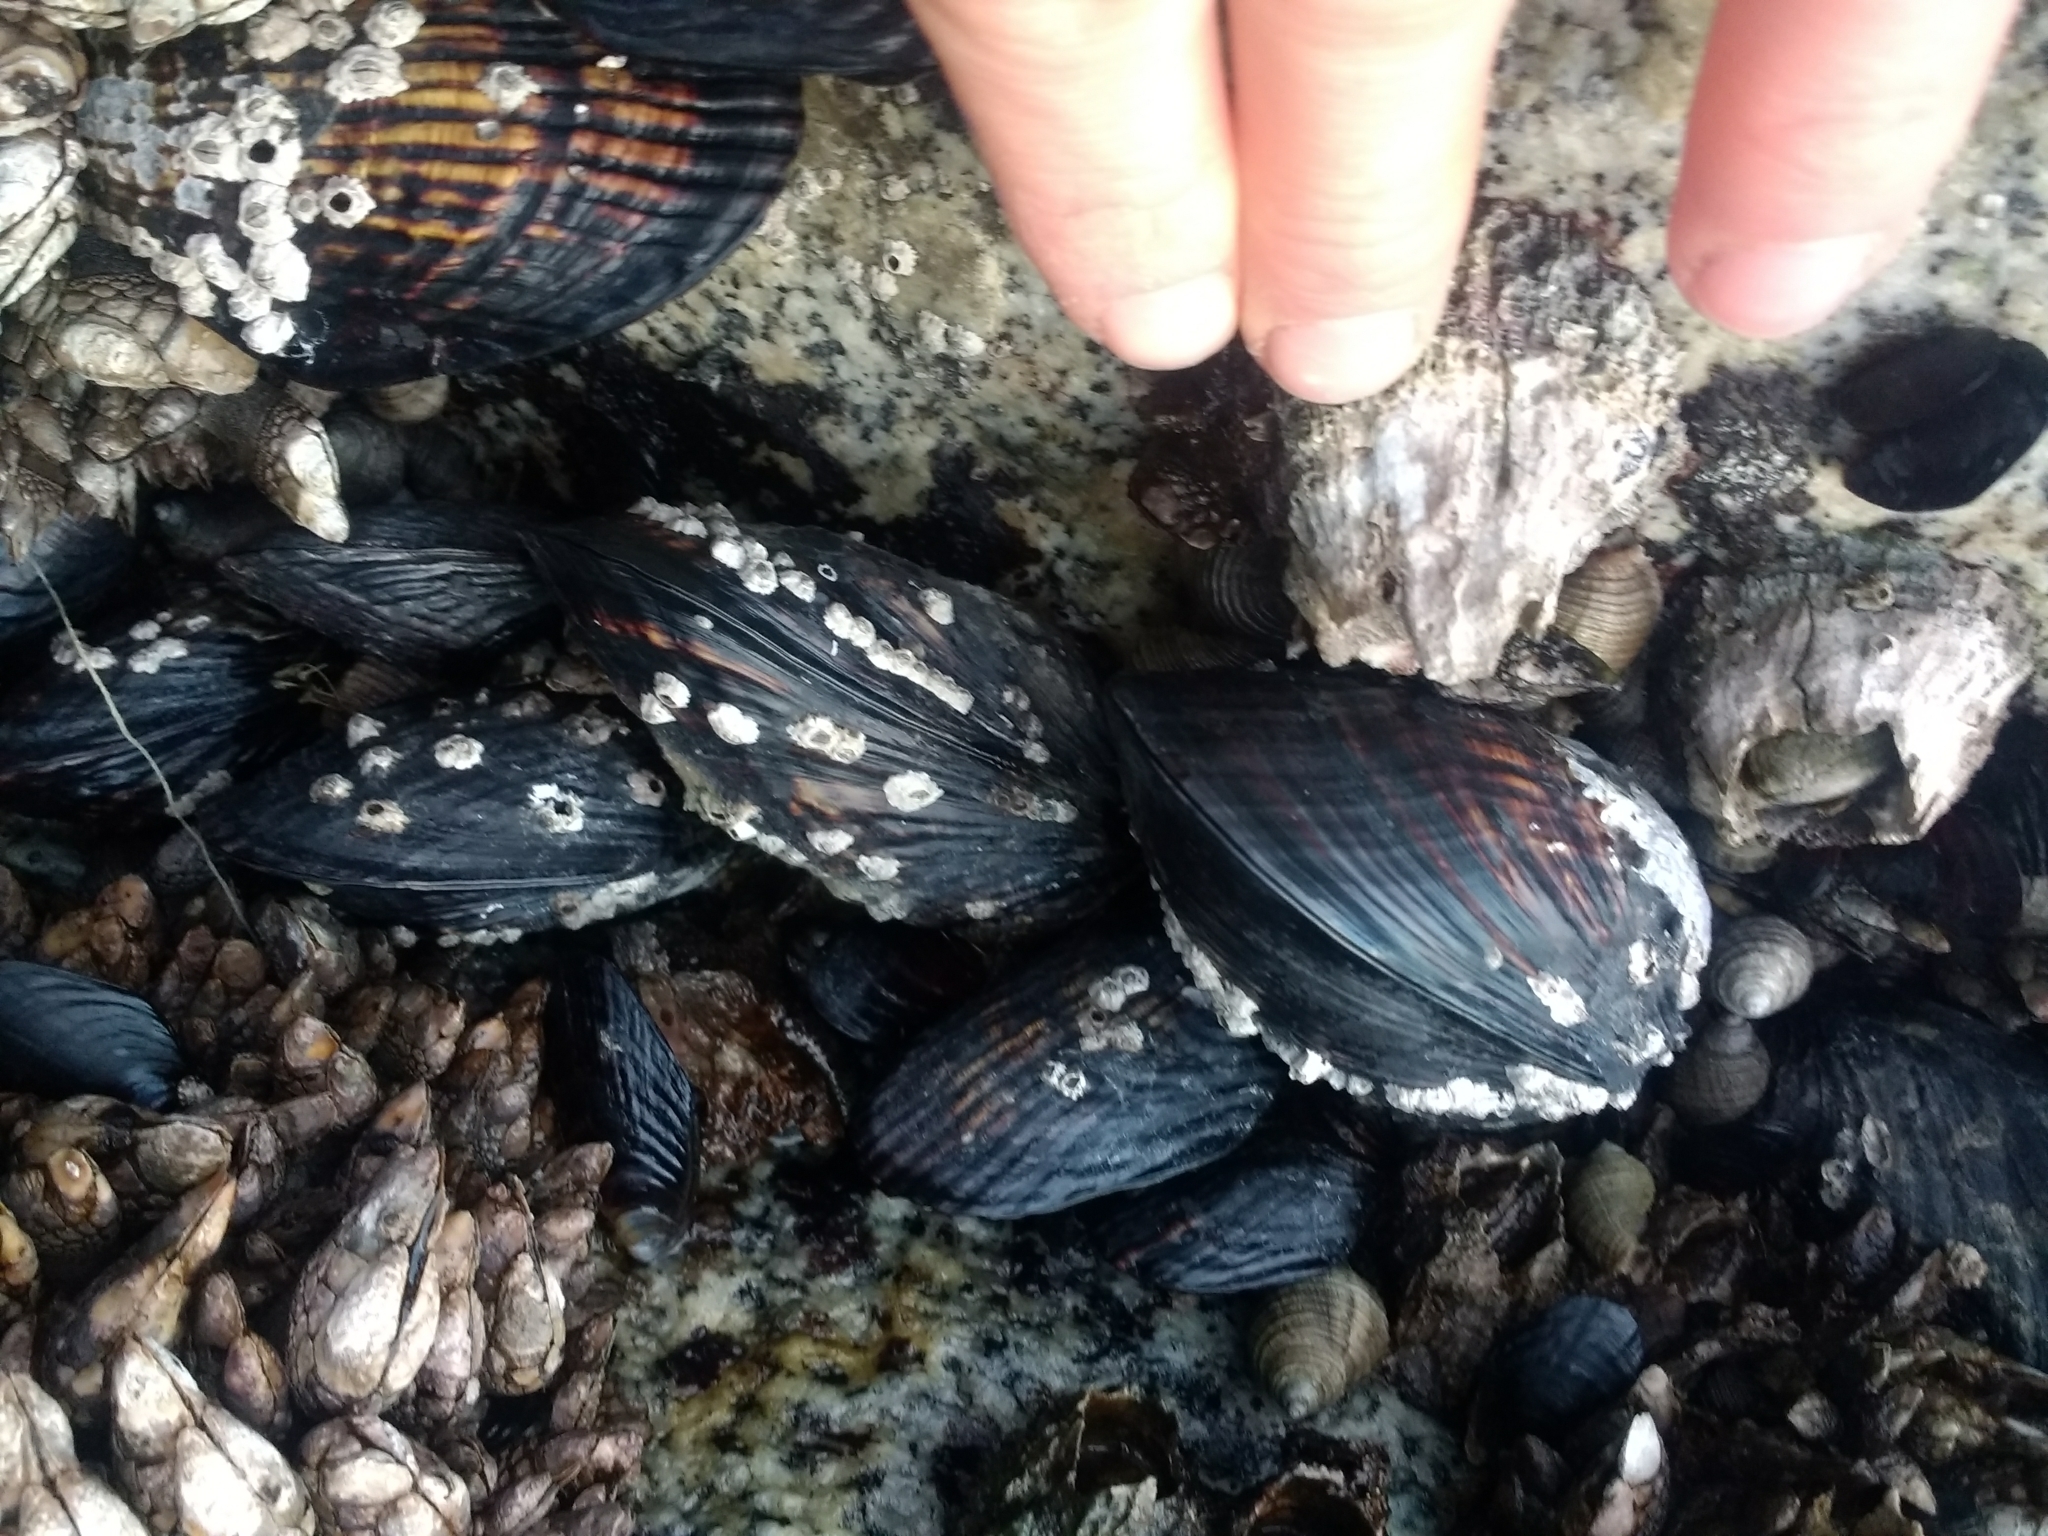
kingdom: Animalia
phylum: Mollusca
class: Bivalvia
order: Mytilida
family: Mytilidae
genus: Mytilus
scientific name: Mytilus californianus
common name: California mussel
